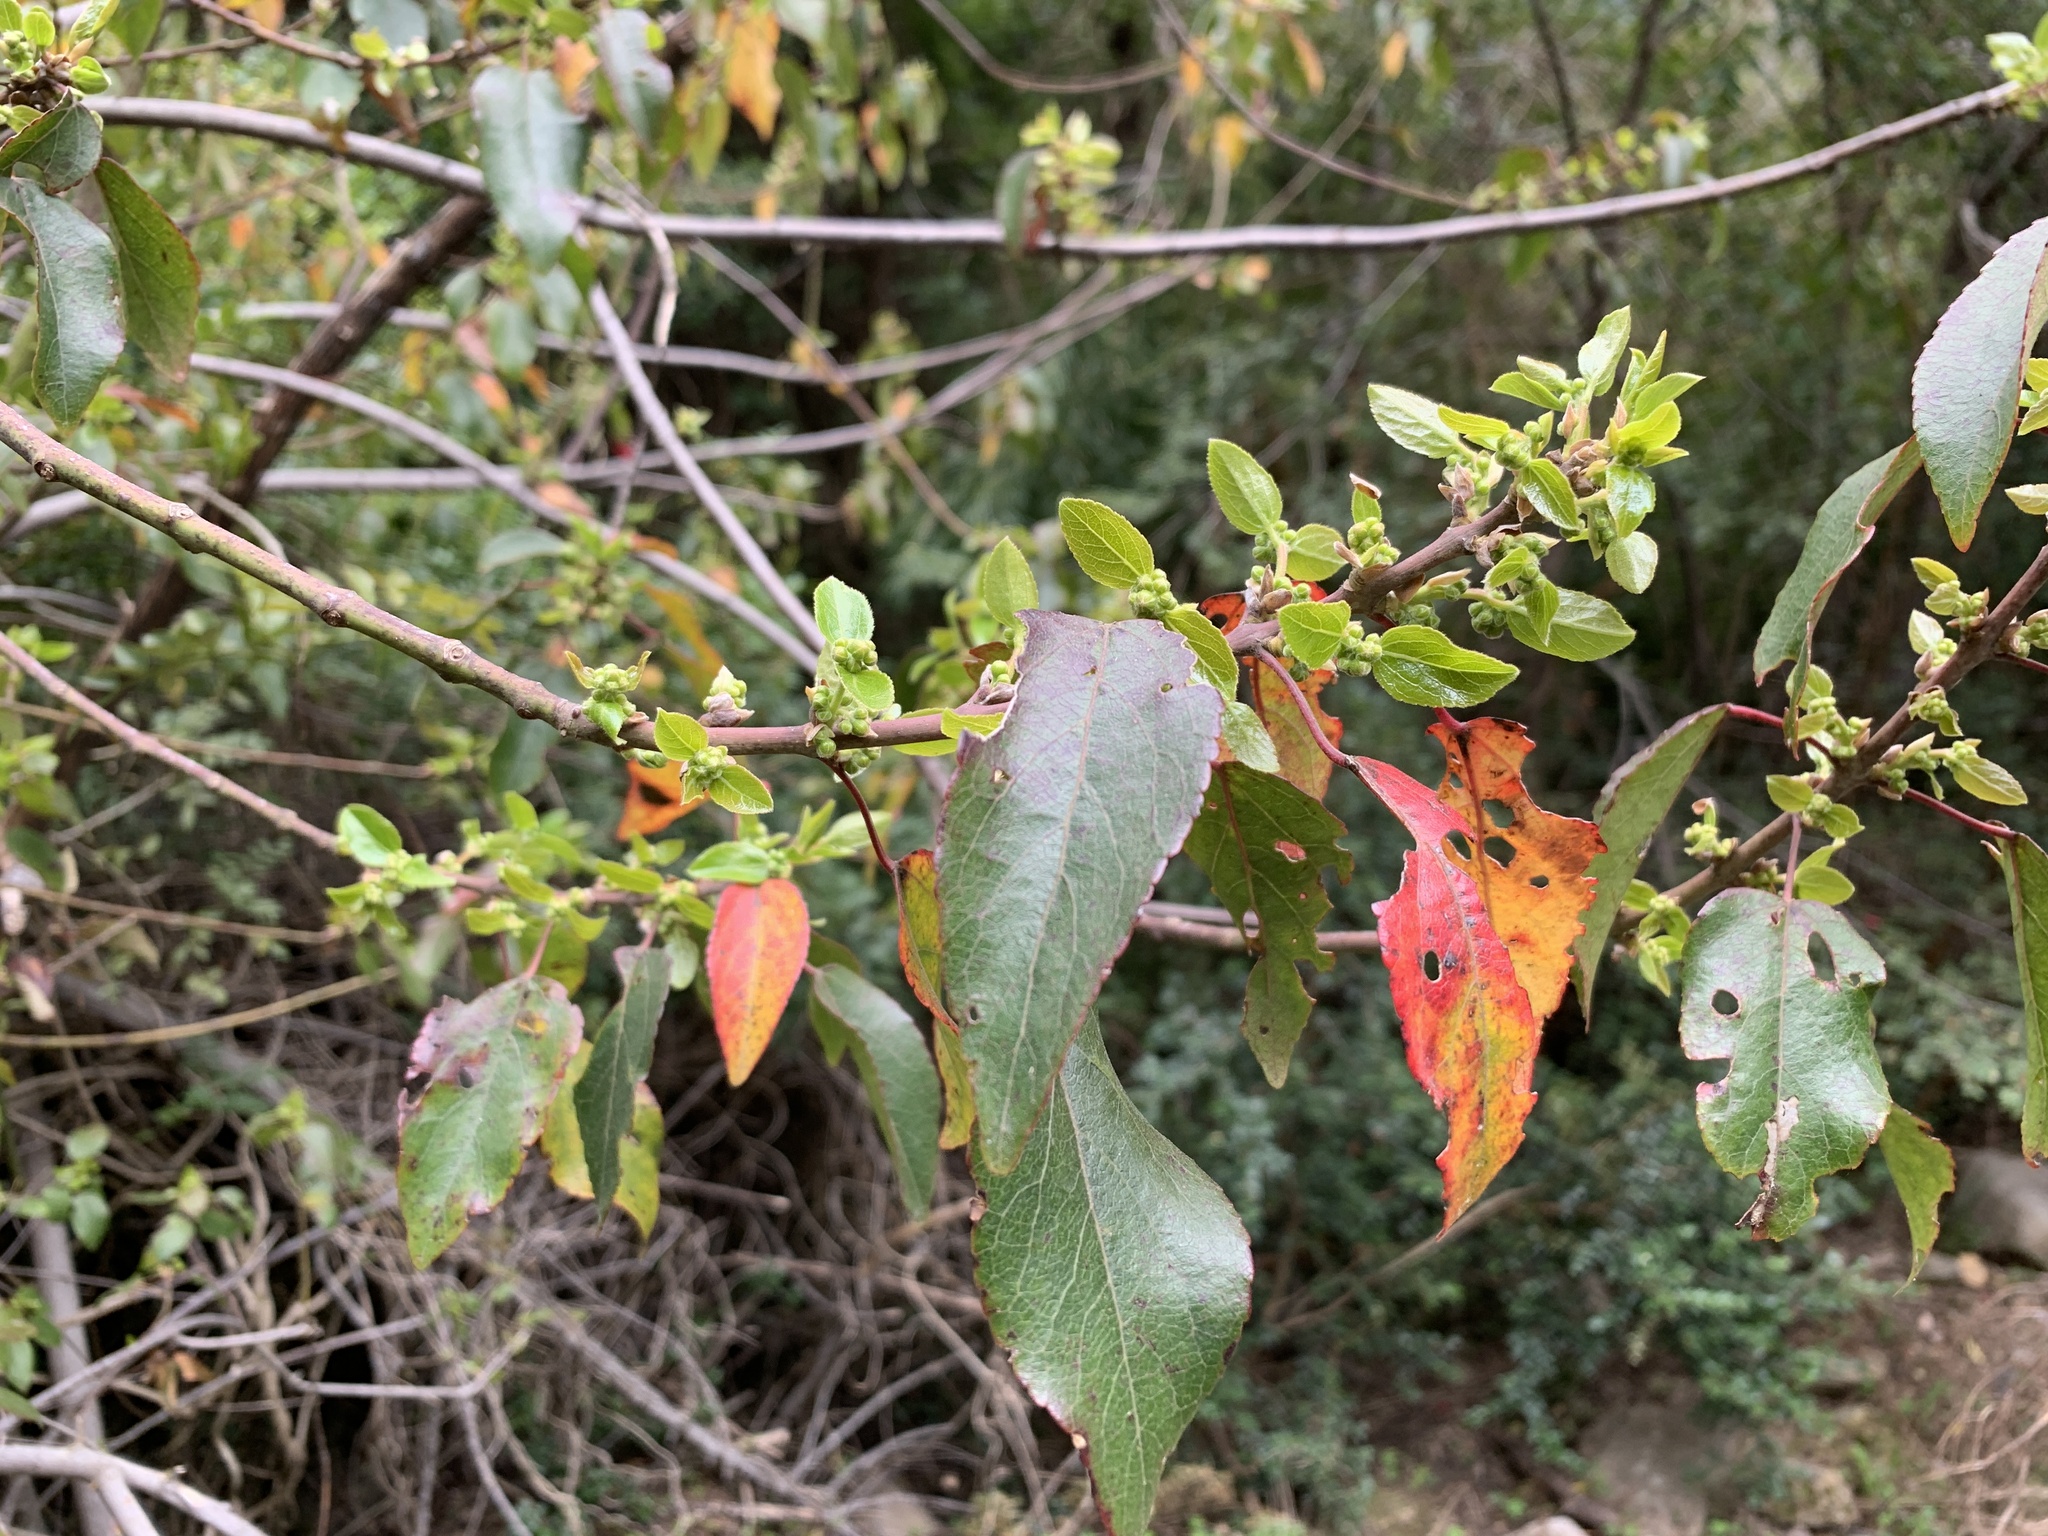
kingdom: Plantae
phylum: Tracheophyta
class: Magnoliopsida
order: Oxalidales
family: Elaeocarpaceae
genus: Aristotelia
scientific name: Aristotelia chilensis
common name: Maquei
